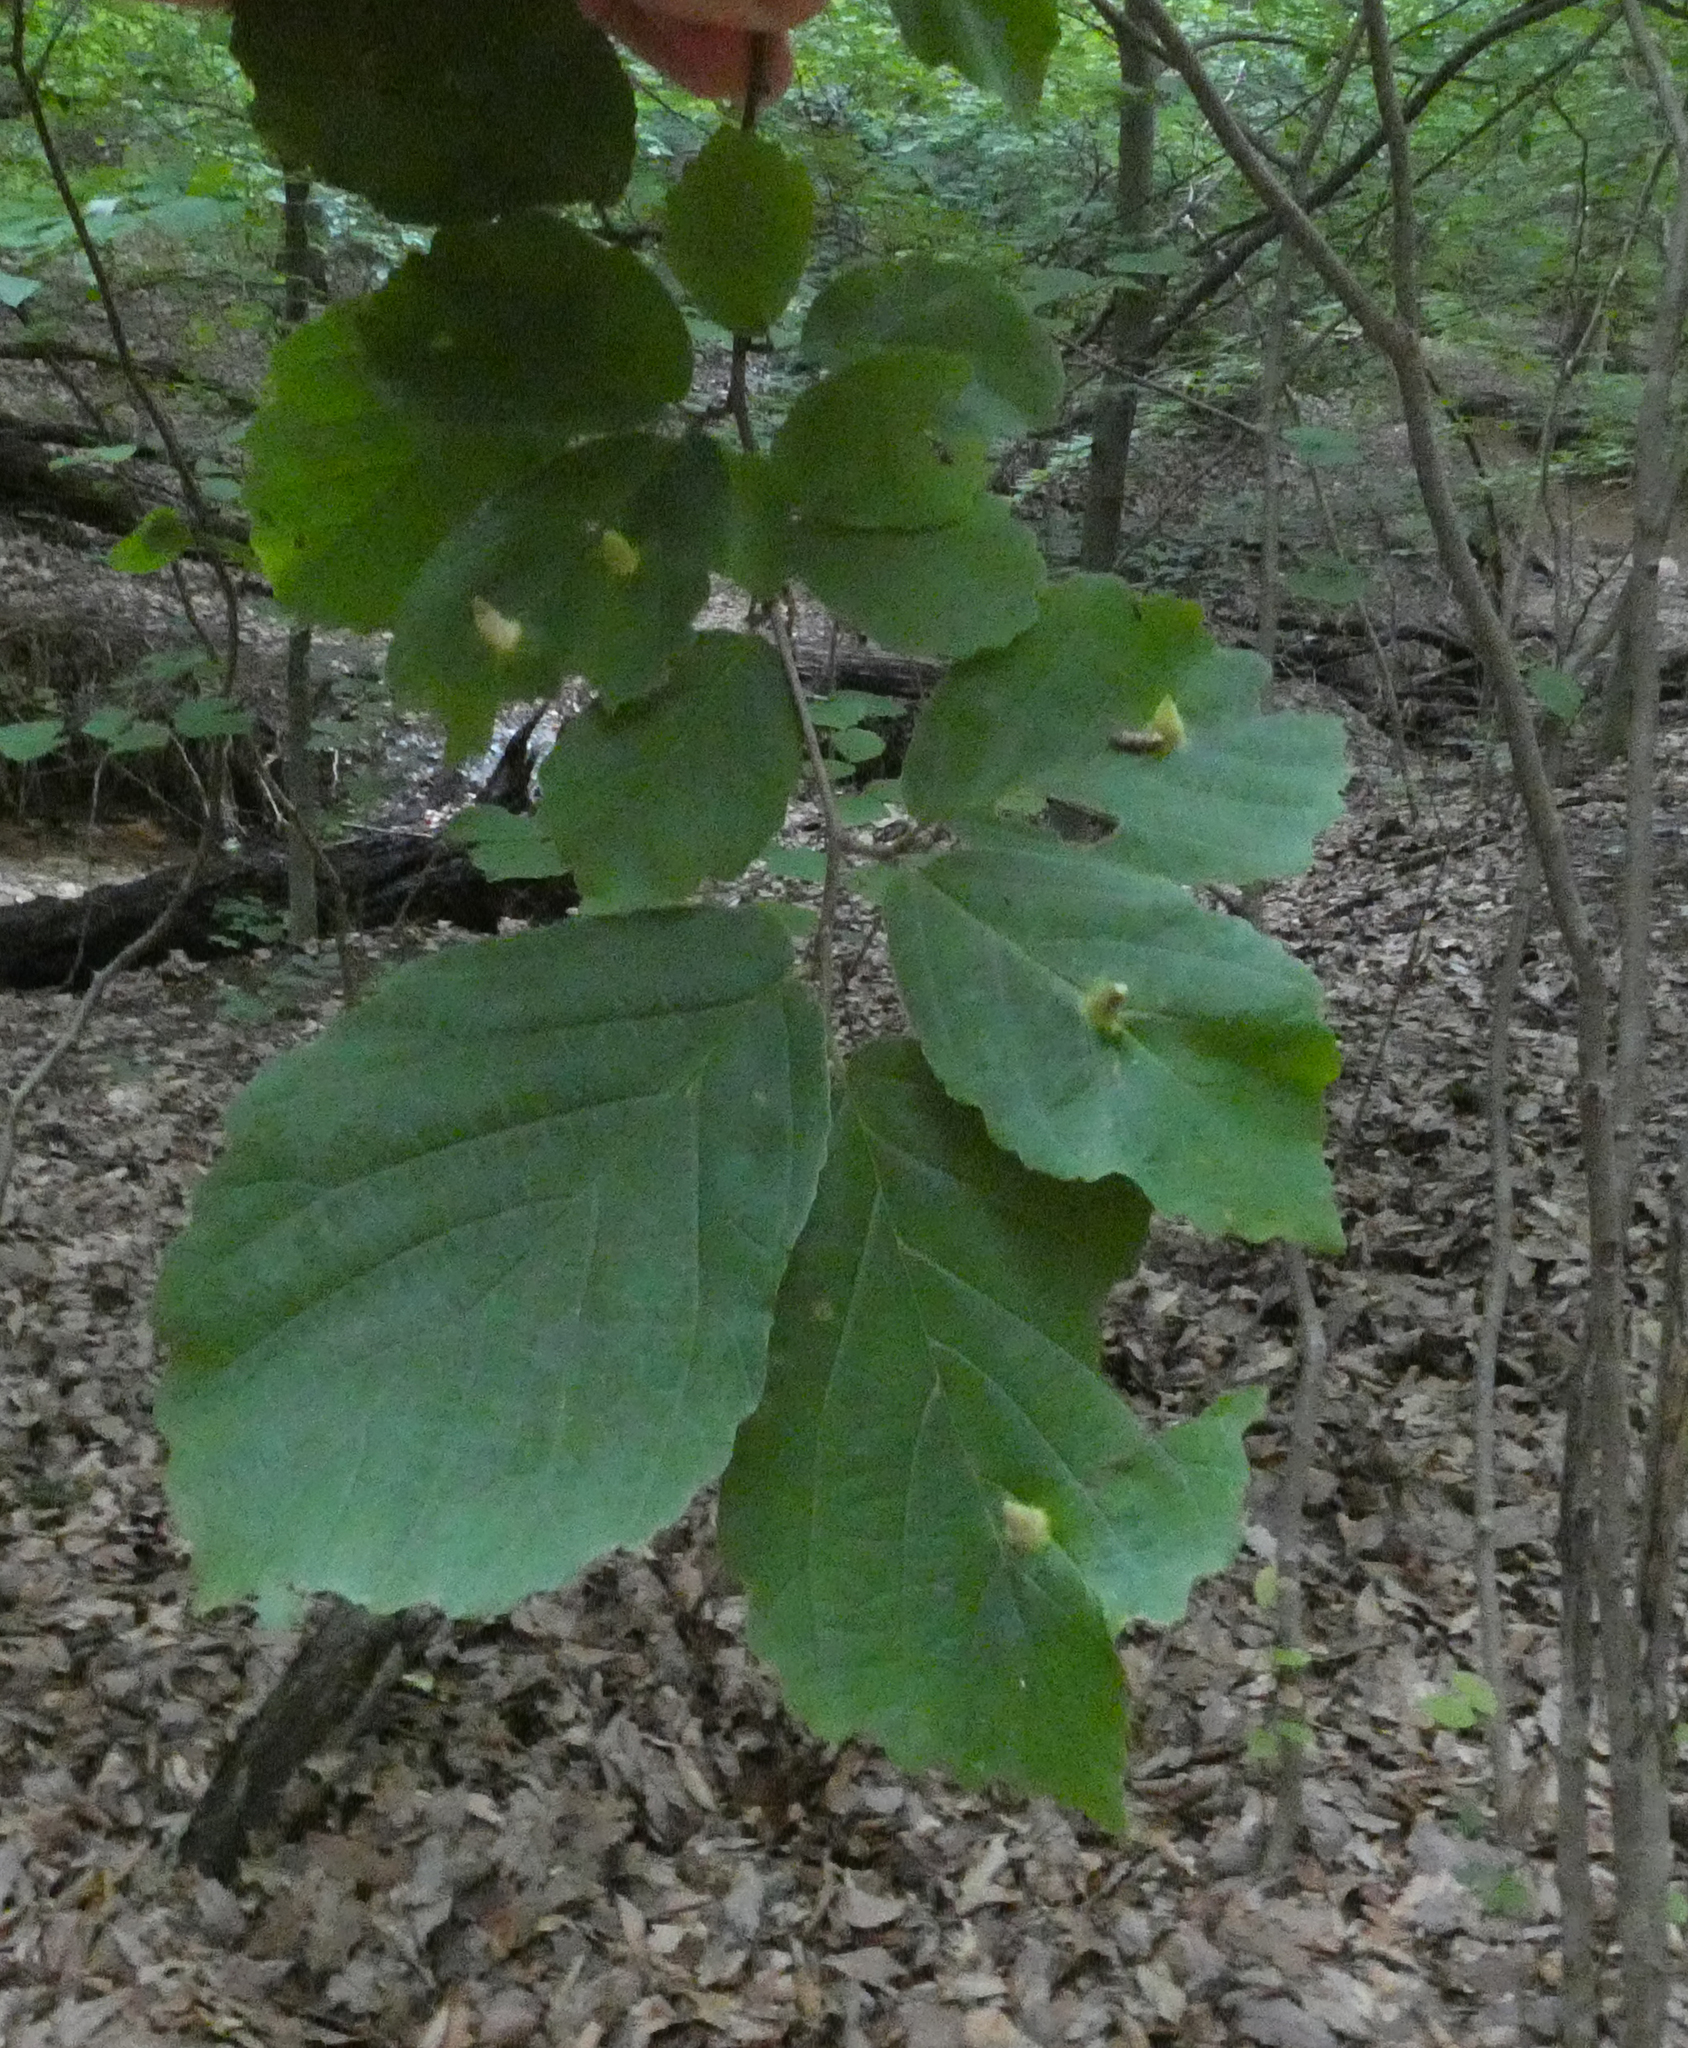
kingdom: Plantae
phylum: Tracheophyta
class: Magnoliopsida
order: Saxifragales
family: Hamamelidaceae
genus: Hamamelis
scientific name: Hamamelis virginiana
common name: Witch-hazel
